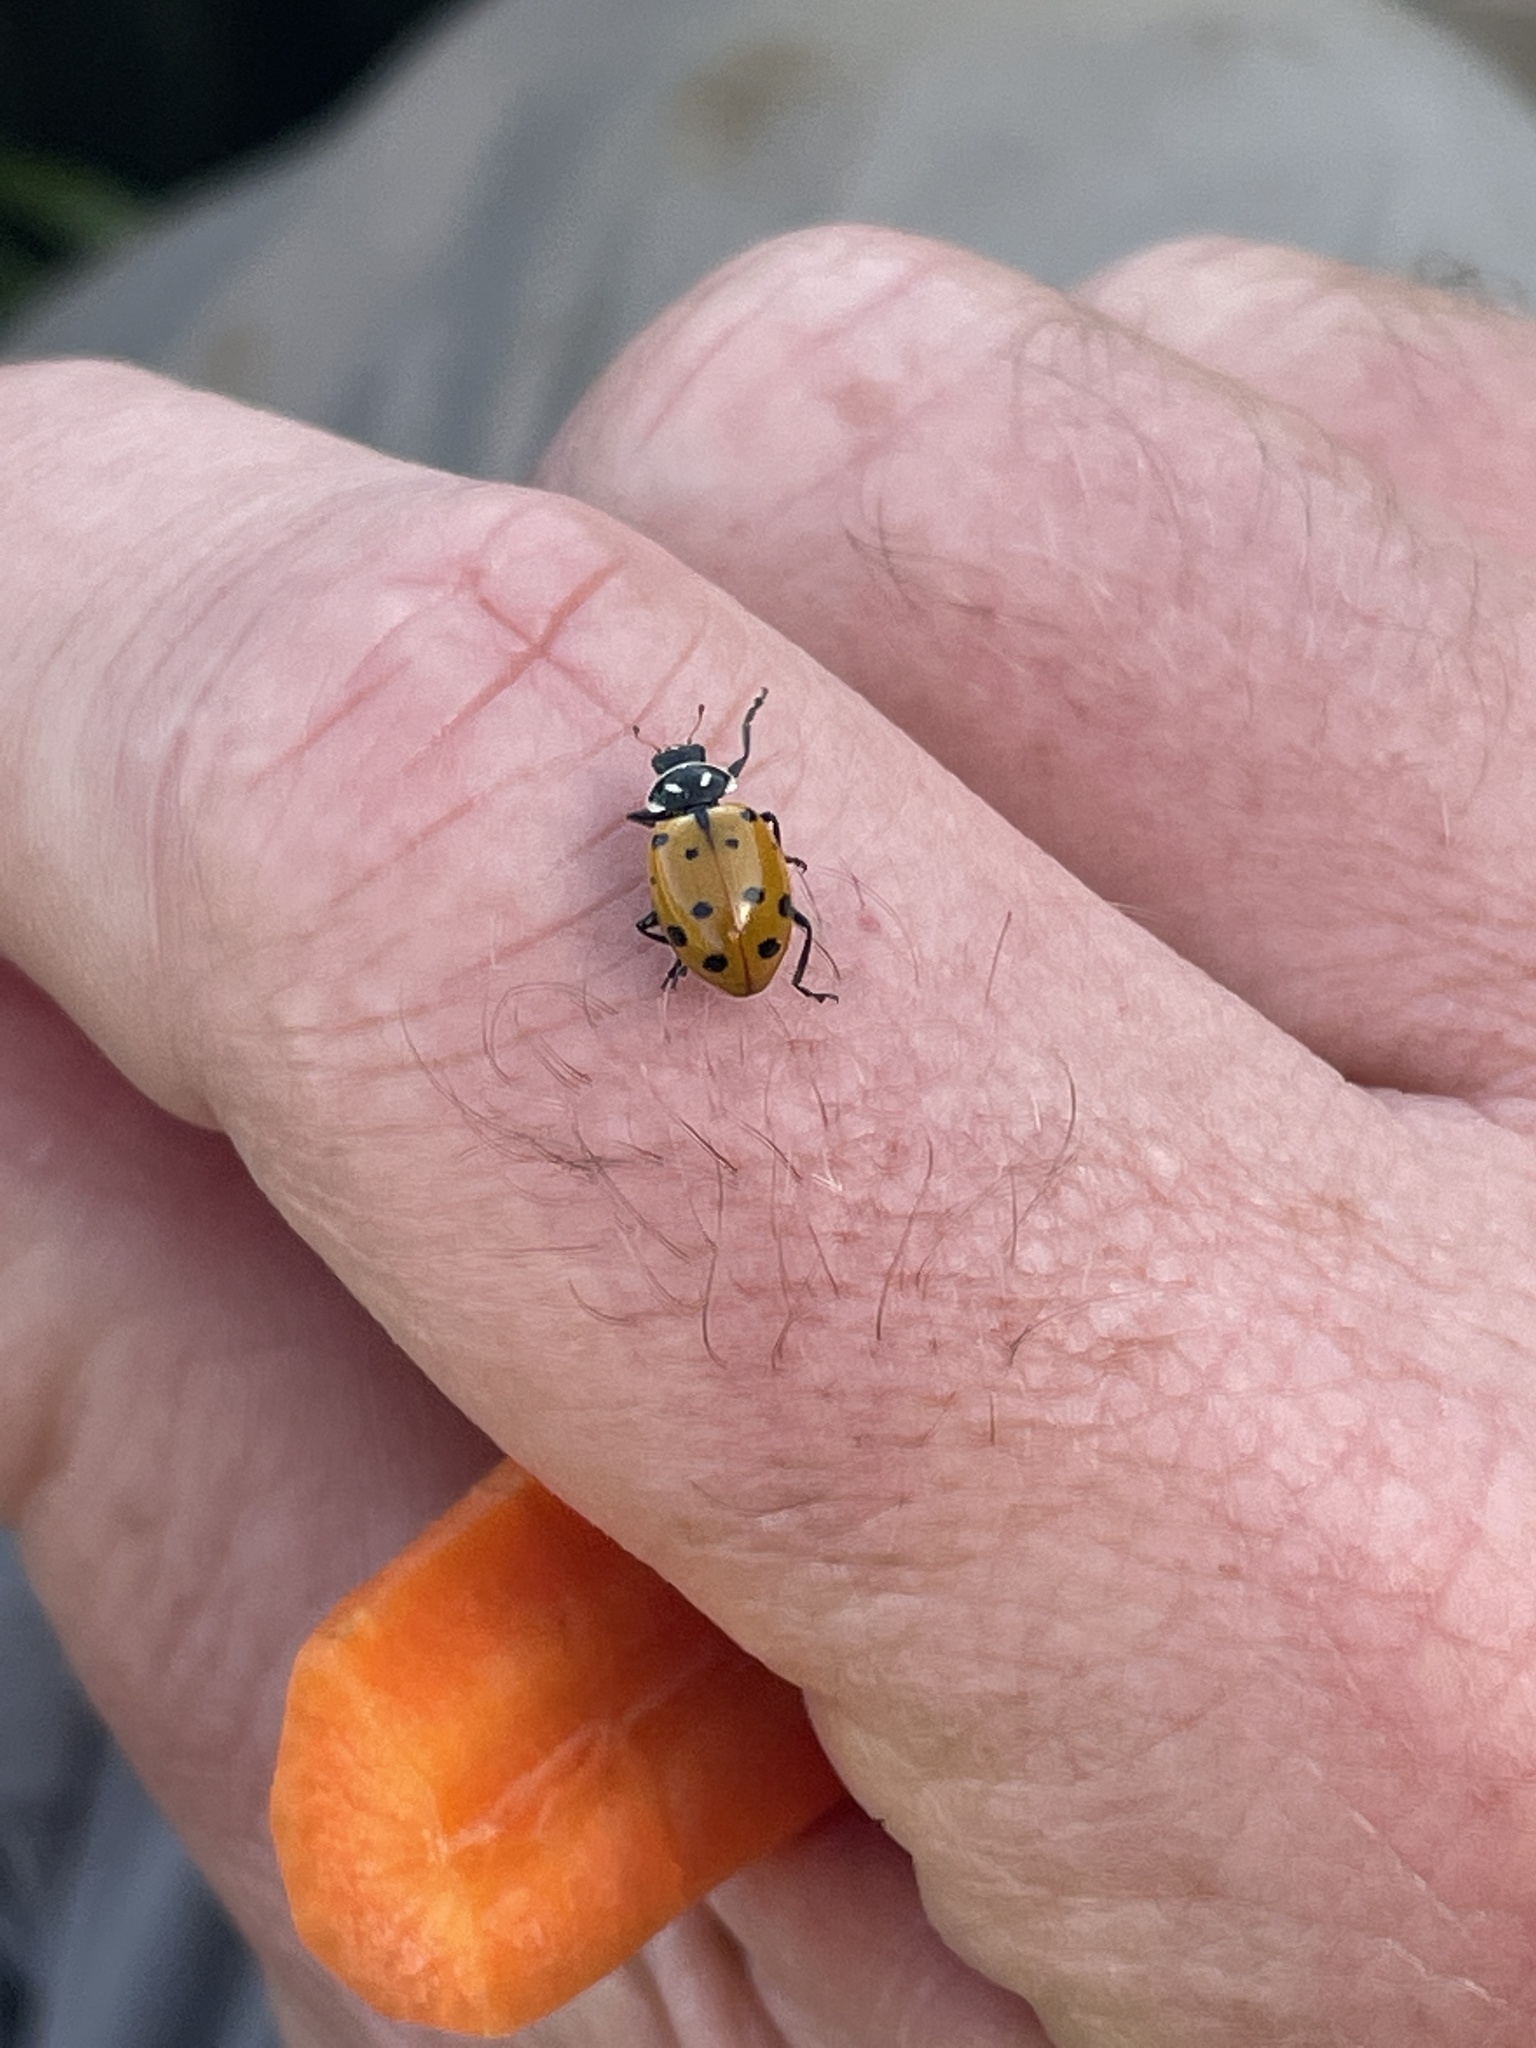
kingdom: Animalia
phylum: Arthropoda
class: Insecta
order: Coleoptera
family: Coccinellidae
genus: Hippodamia
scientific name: Hippodamia convergens
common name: Convergent lady beetle
